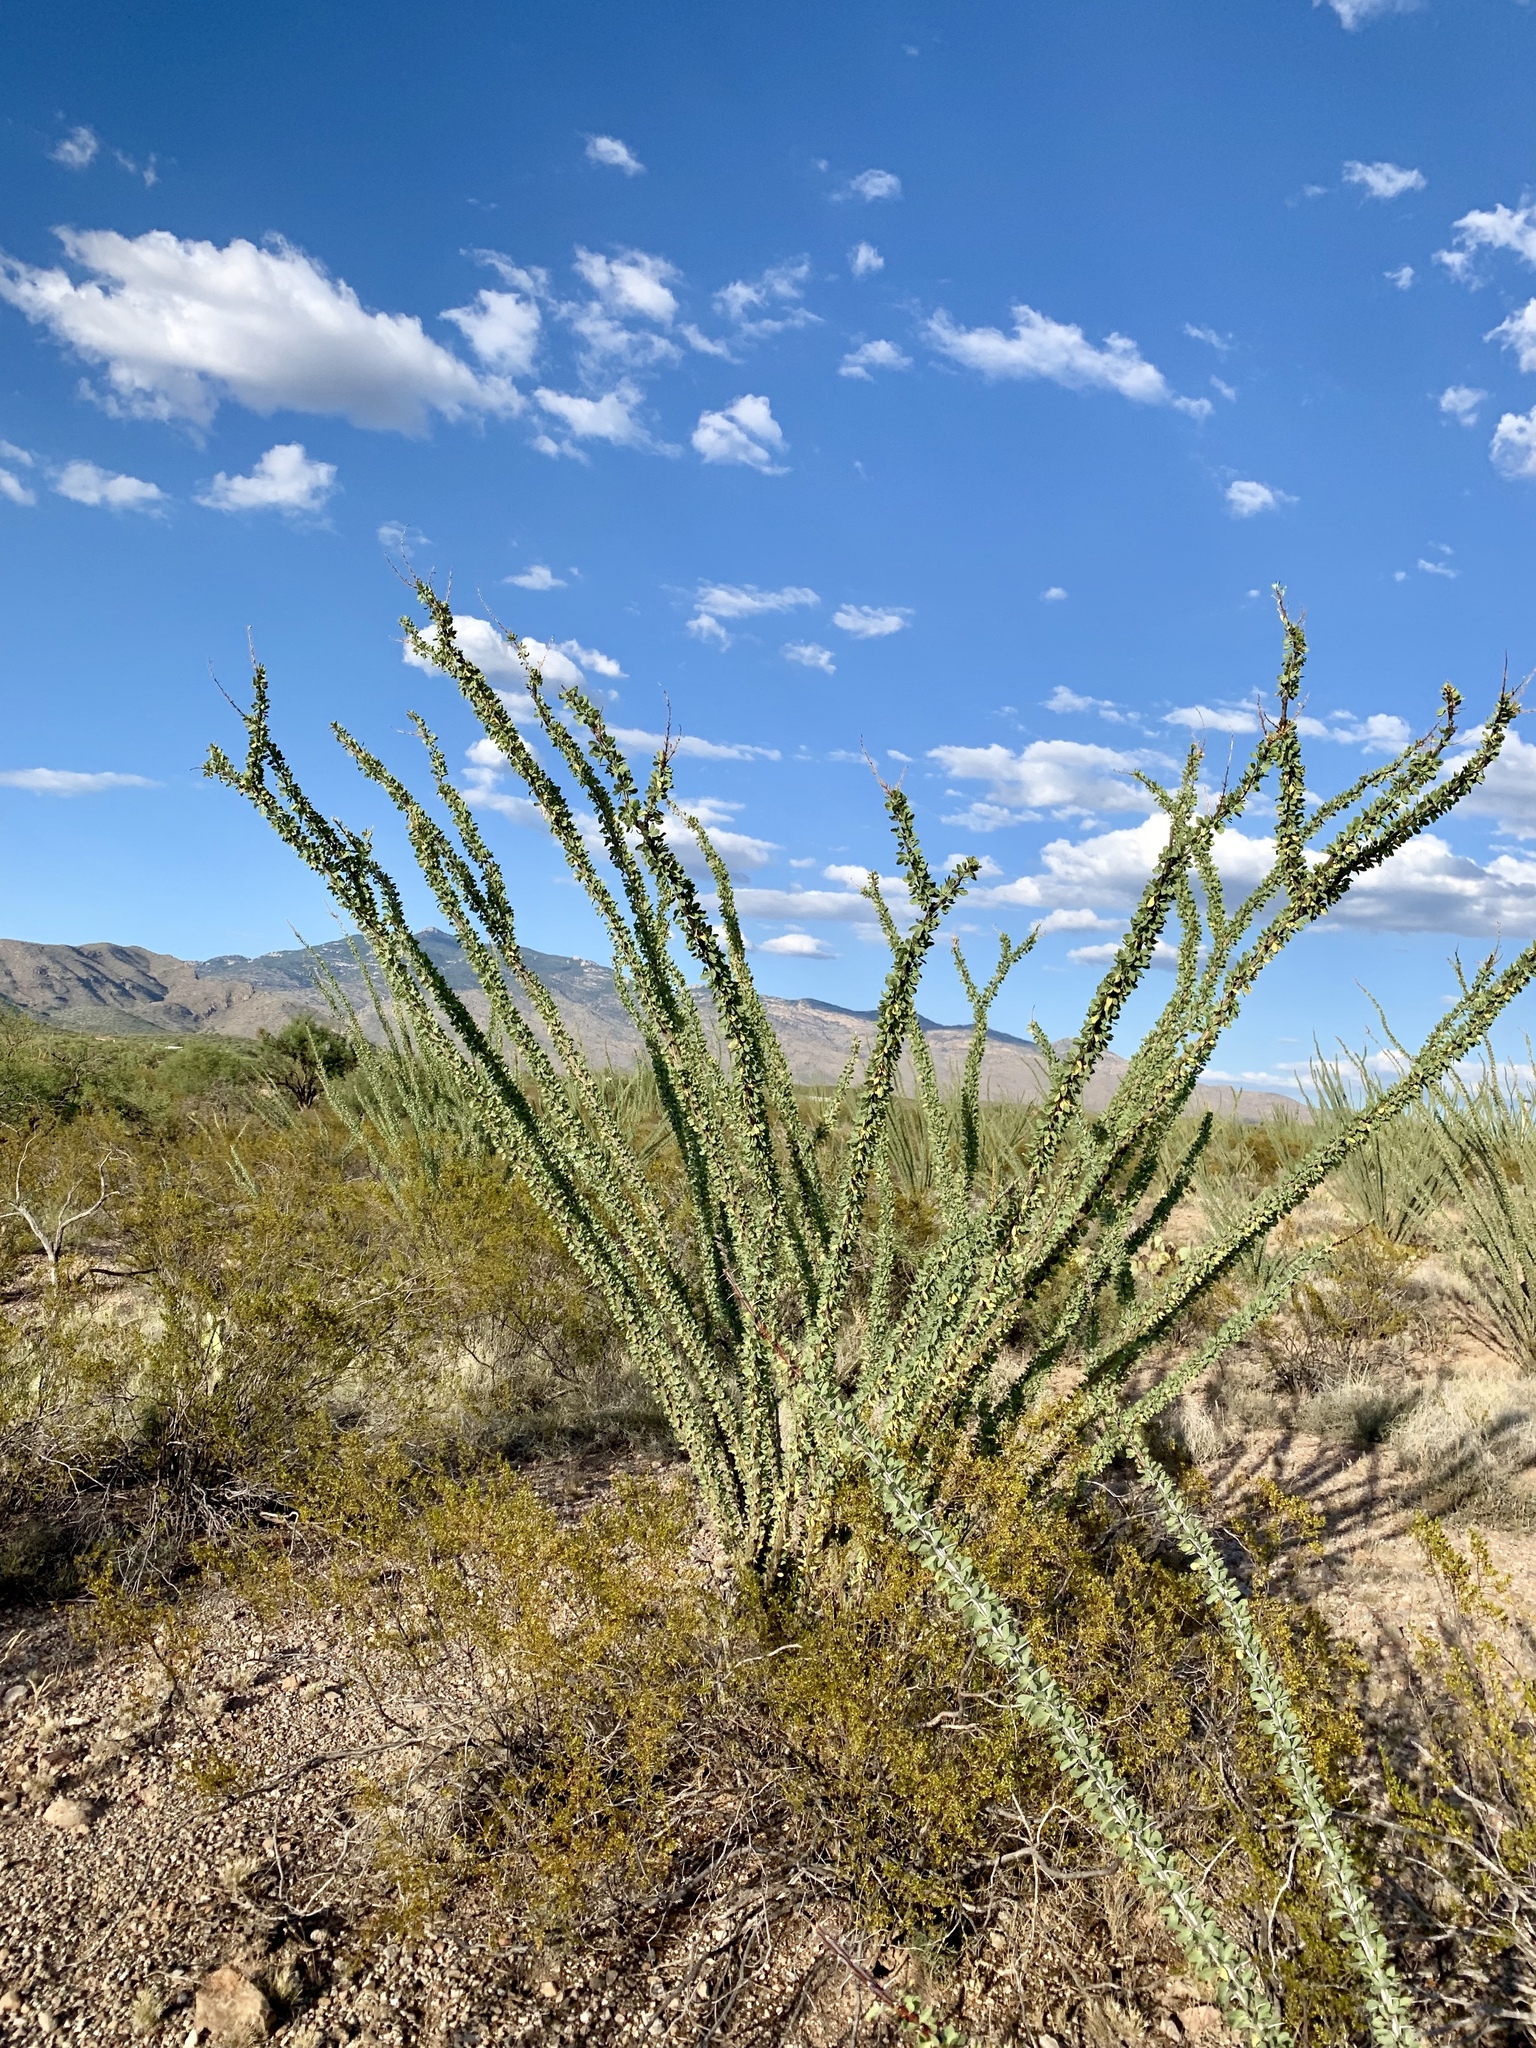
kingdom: Plantae
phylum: Tracheophyta
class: Magnoliopsida
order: Ericales
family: Fouquieriaceae
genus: Fouquieria
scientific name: Fouquieria splendens
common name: Vine-cactus
